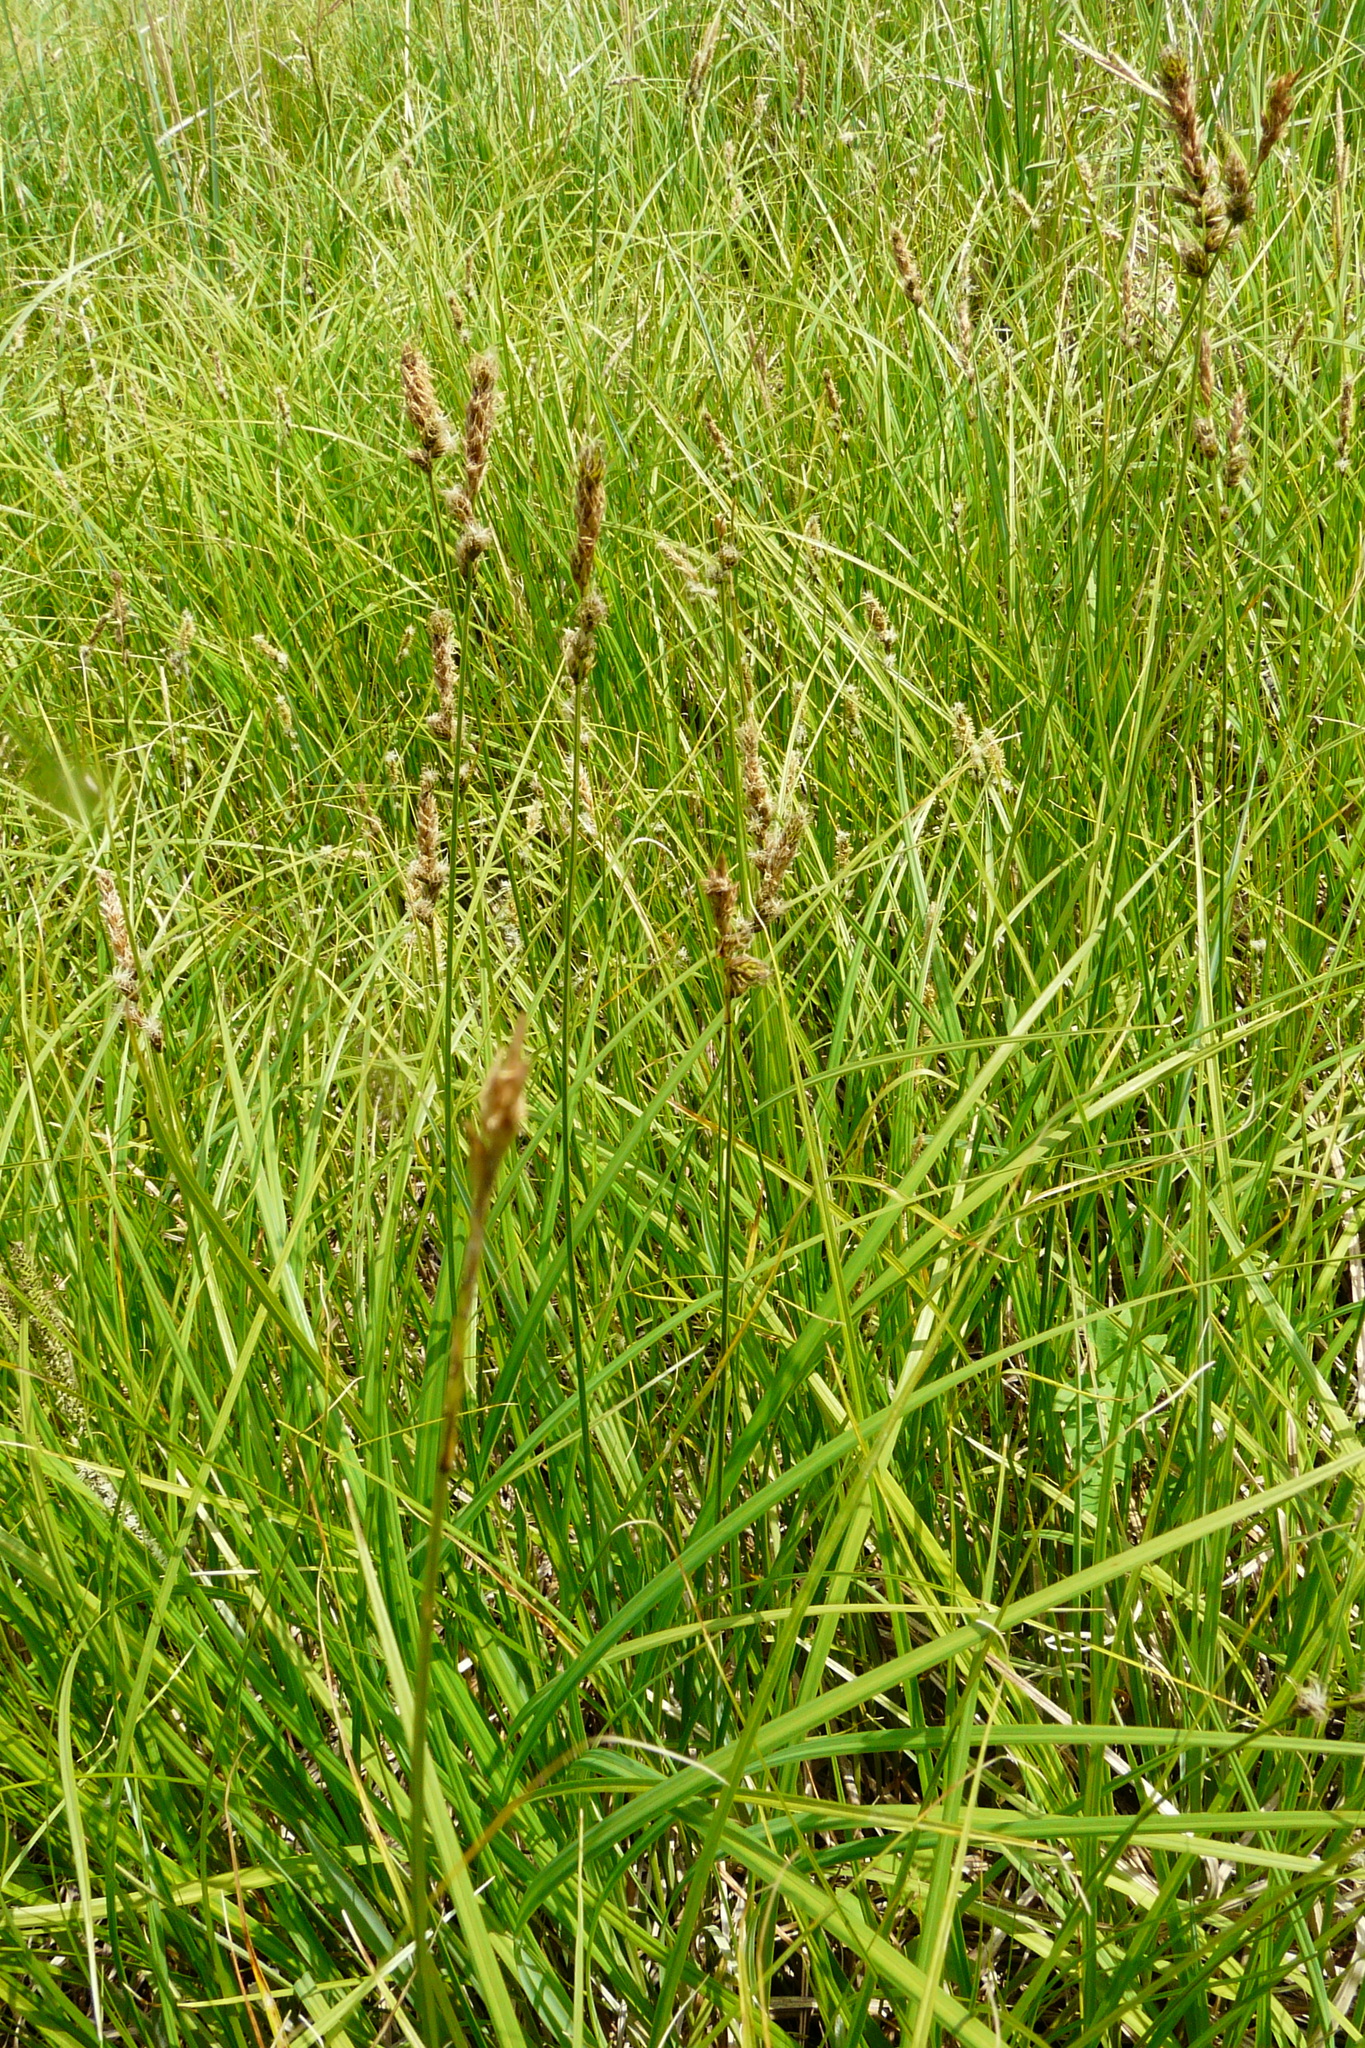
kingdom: Plantae
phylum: Tracheophyta
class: Liliopsida
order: Poales
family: Cyperaceae
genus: Carex
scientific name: Carex disticha
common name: Brown sedge
